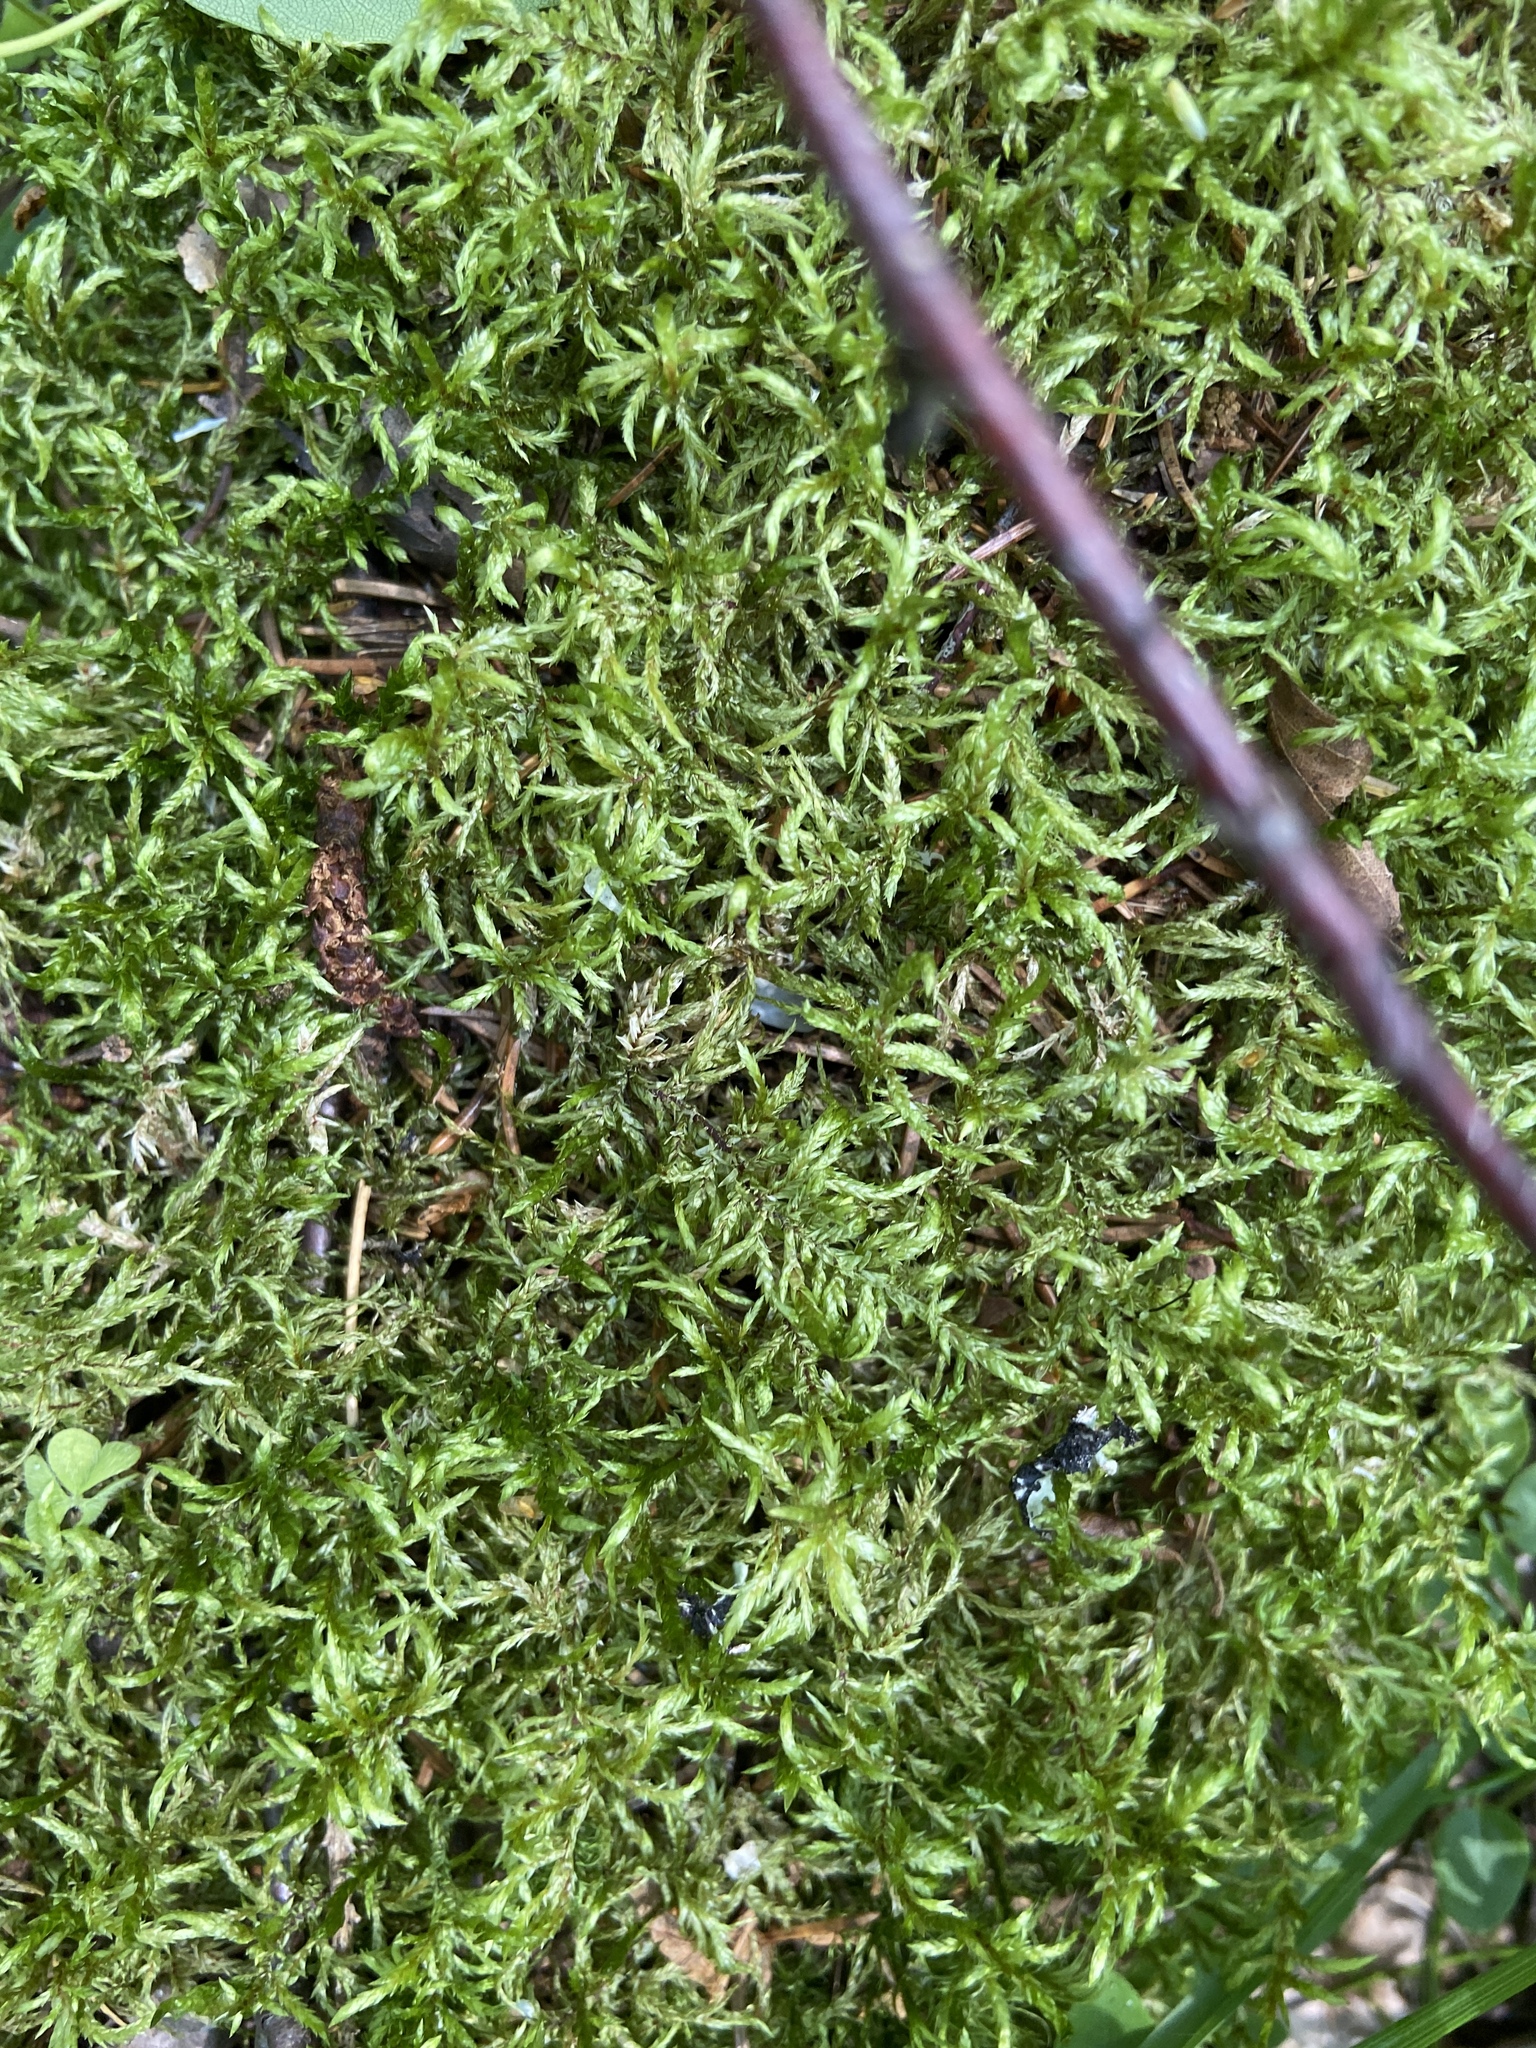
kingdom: Plantae
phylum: Bryophyta
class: Bryopsida
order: Hypnales
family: Hylocomiaceae
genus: Pleurozium
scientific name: Pleurozium schreberi
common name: Red-stemmed feather moss
